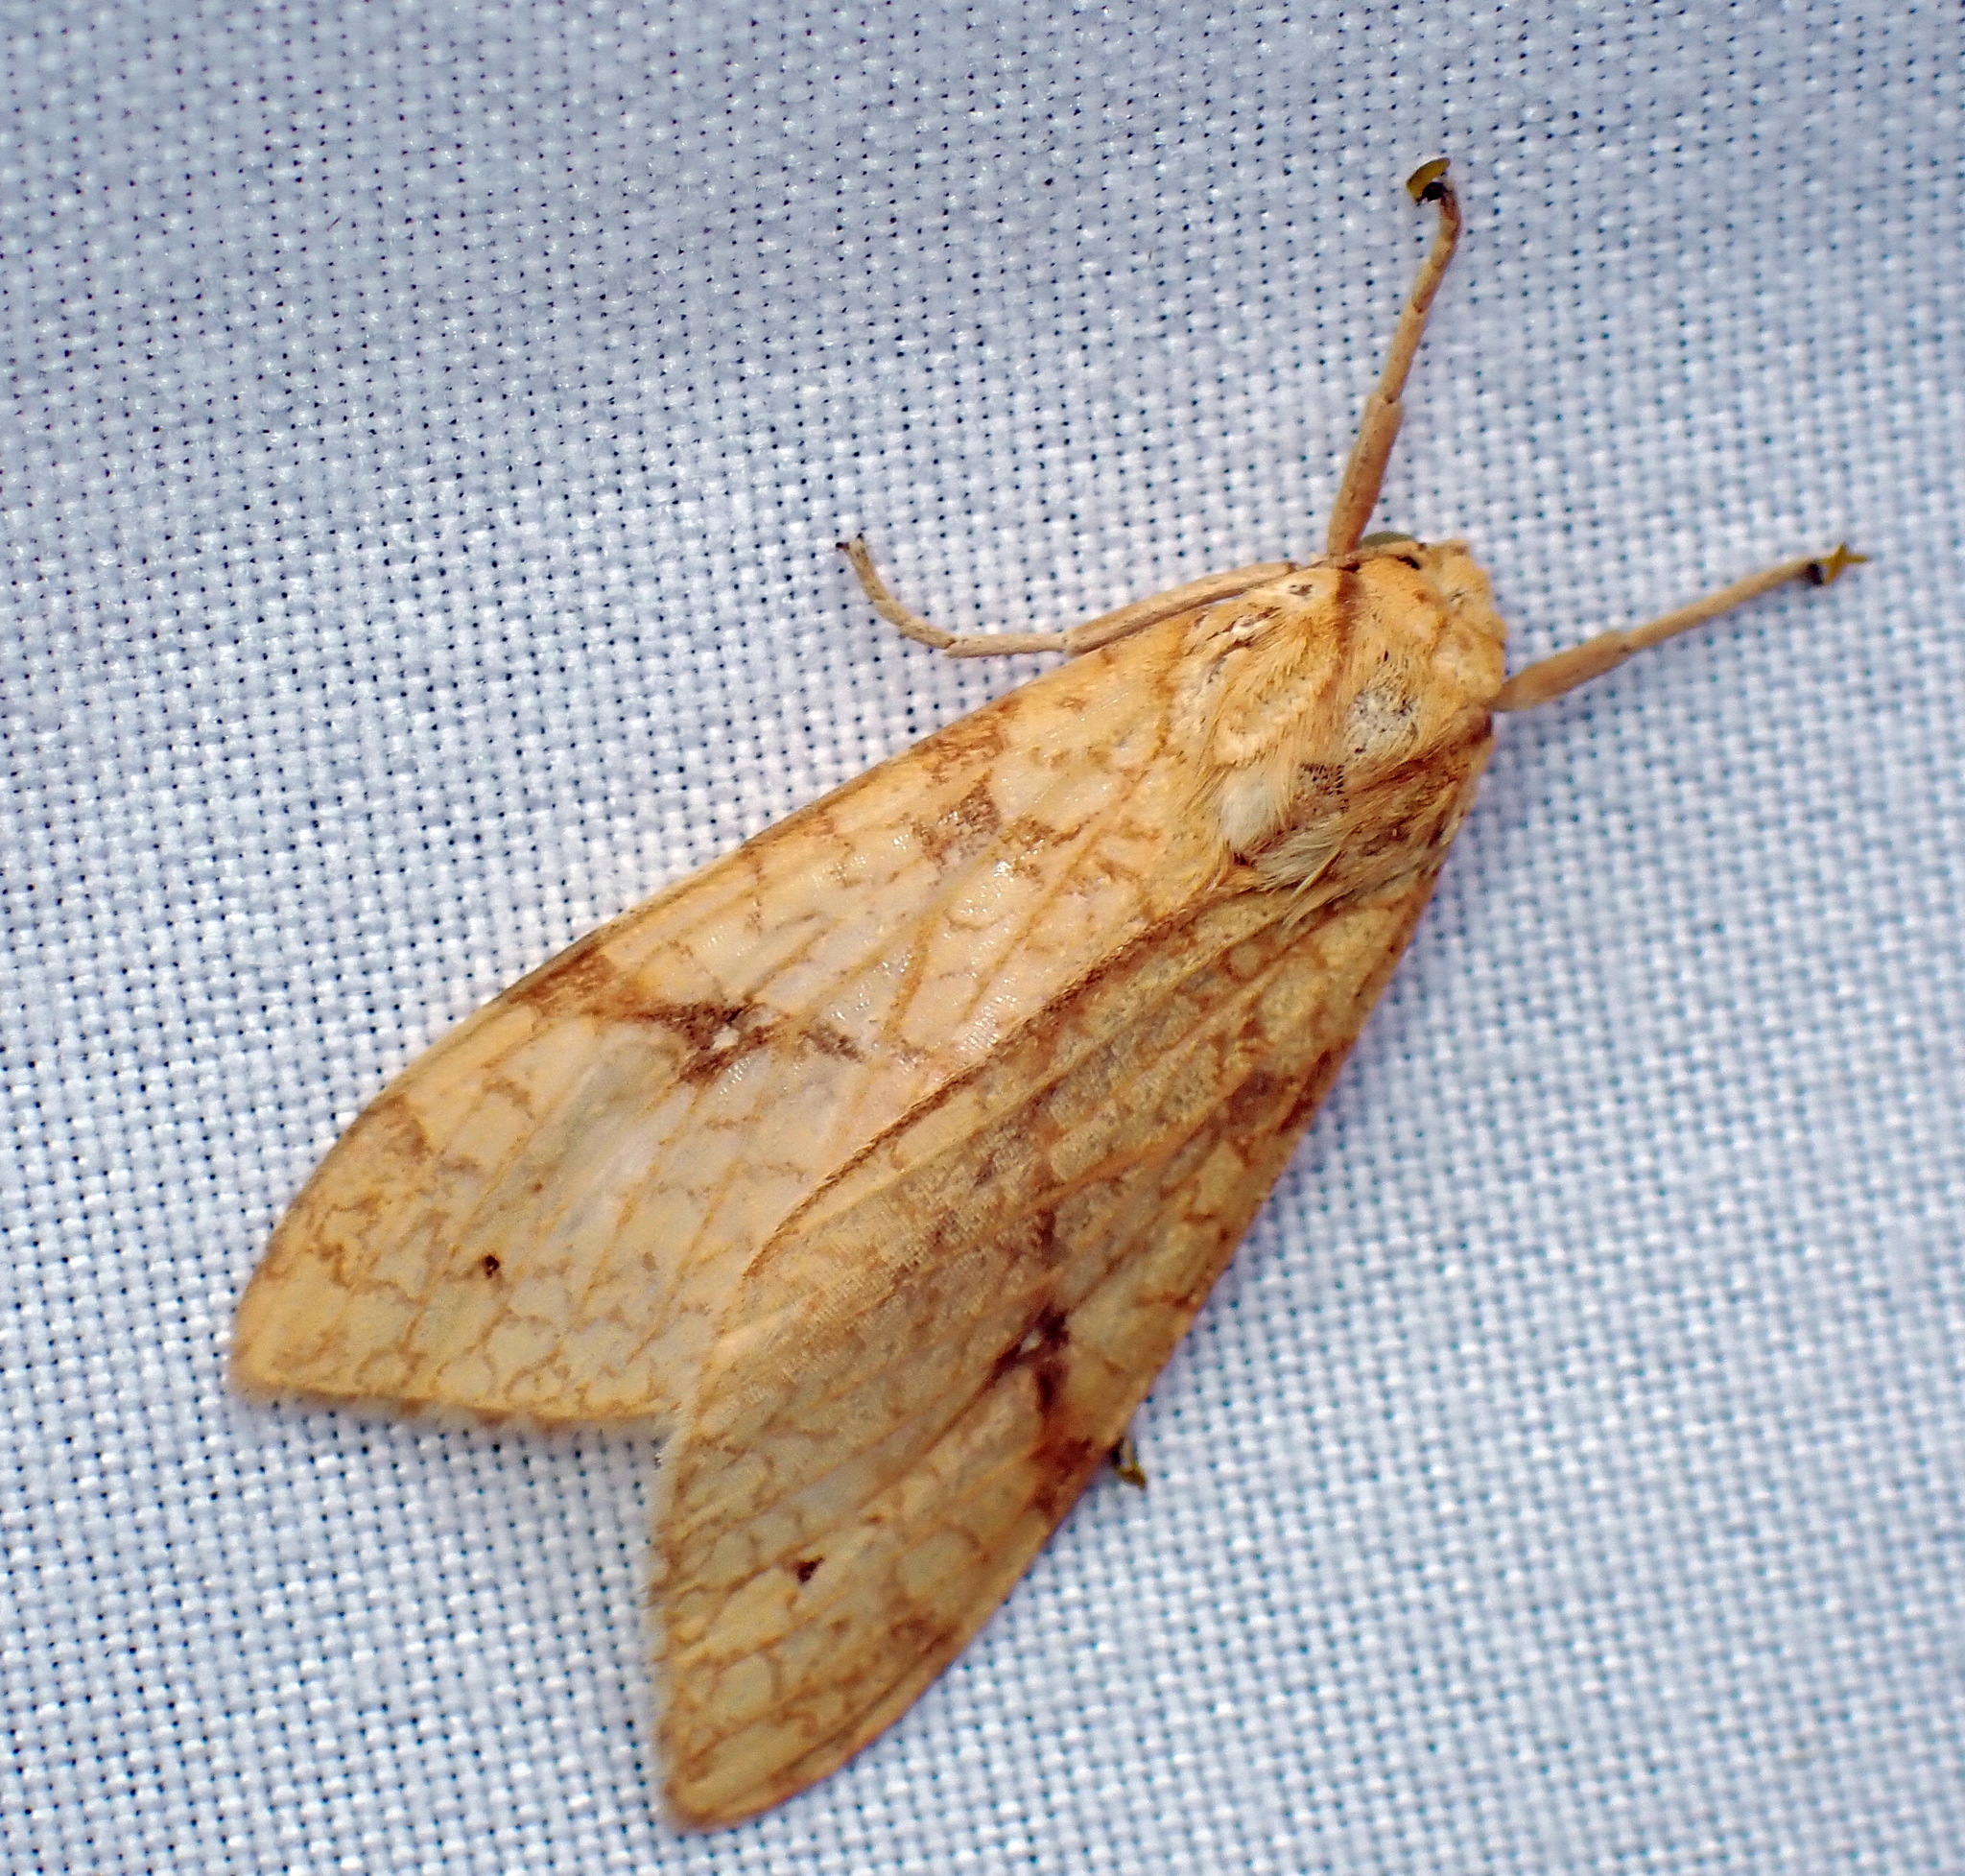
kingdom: Animalia
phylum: Arthropoda
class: Insecta
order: Lepidoptera
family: Erebidae
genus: Lophocampa
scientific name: Lophocampa annulosa
